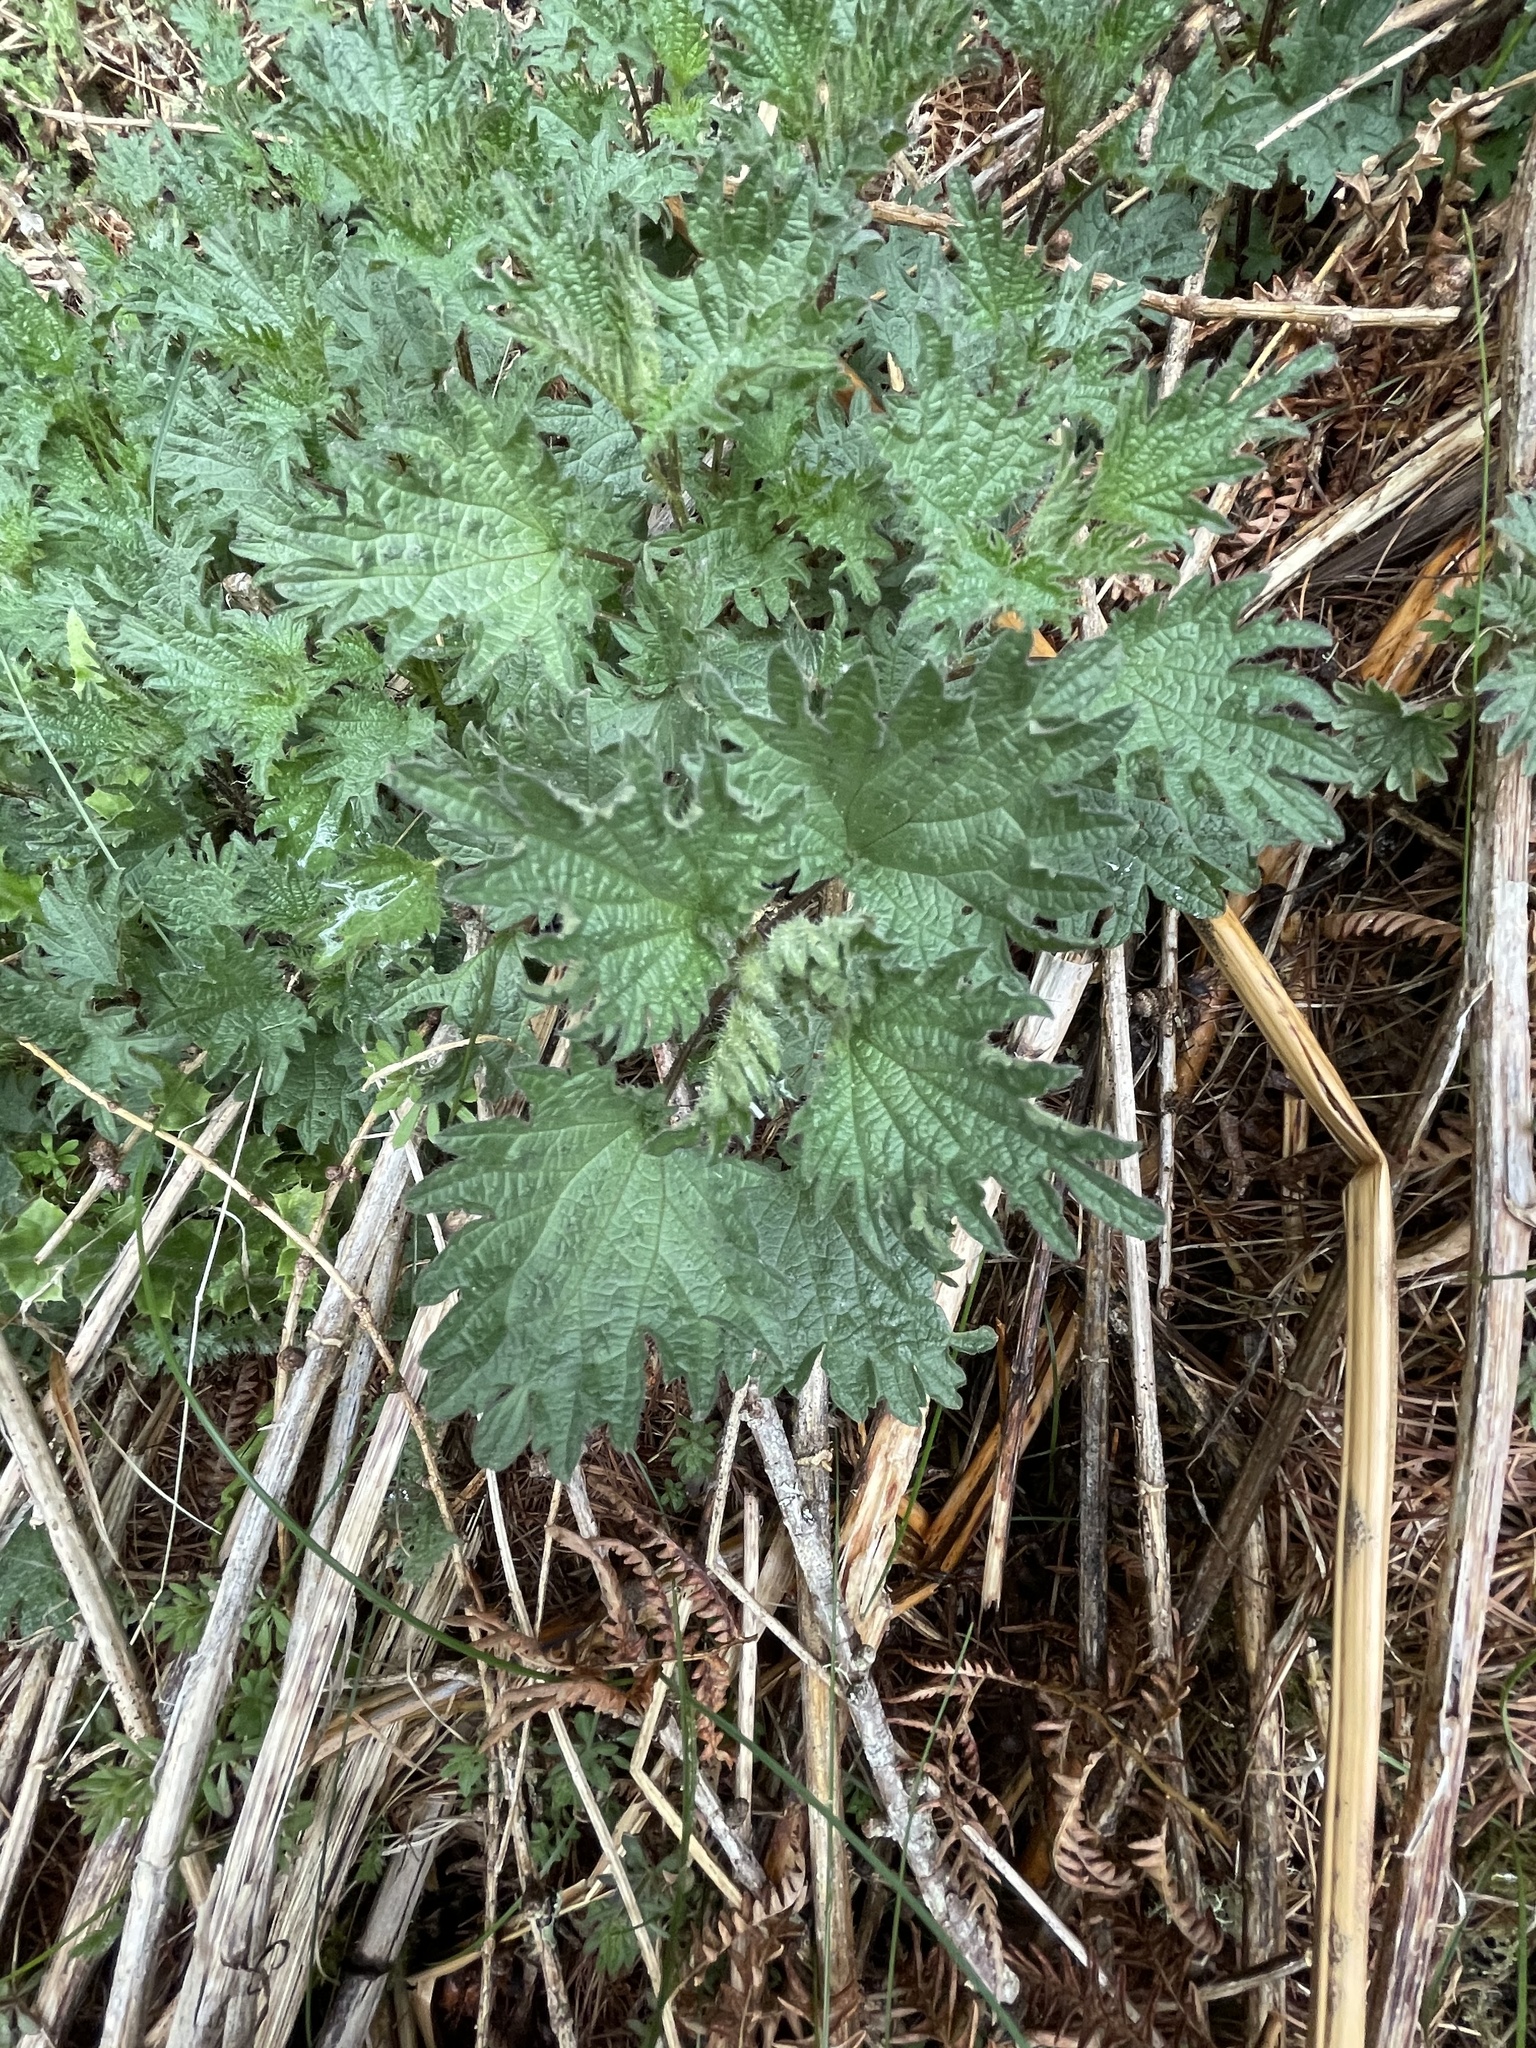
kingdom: Plantae
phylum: Tracheophyta
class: Magnoliopsida
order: Rosales
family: Urticaceae
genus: Urtica
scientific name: Urtica dioica
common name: Common nettle
